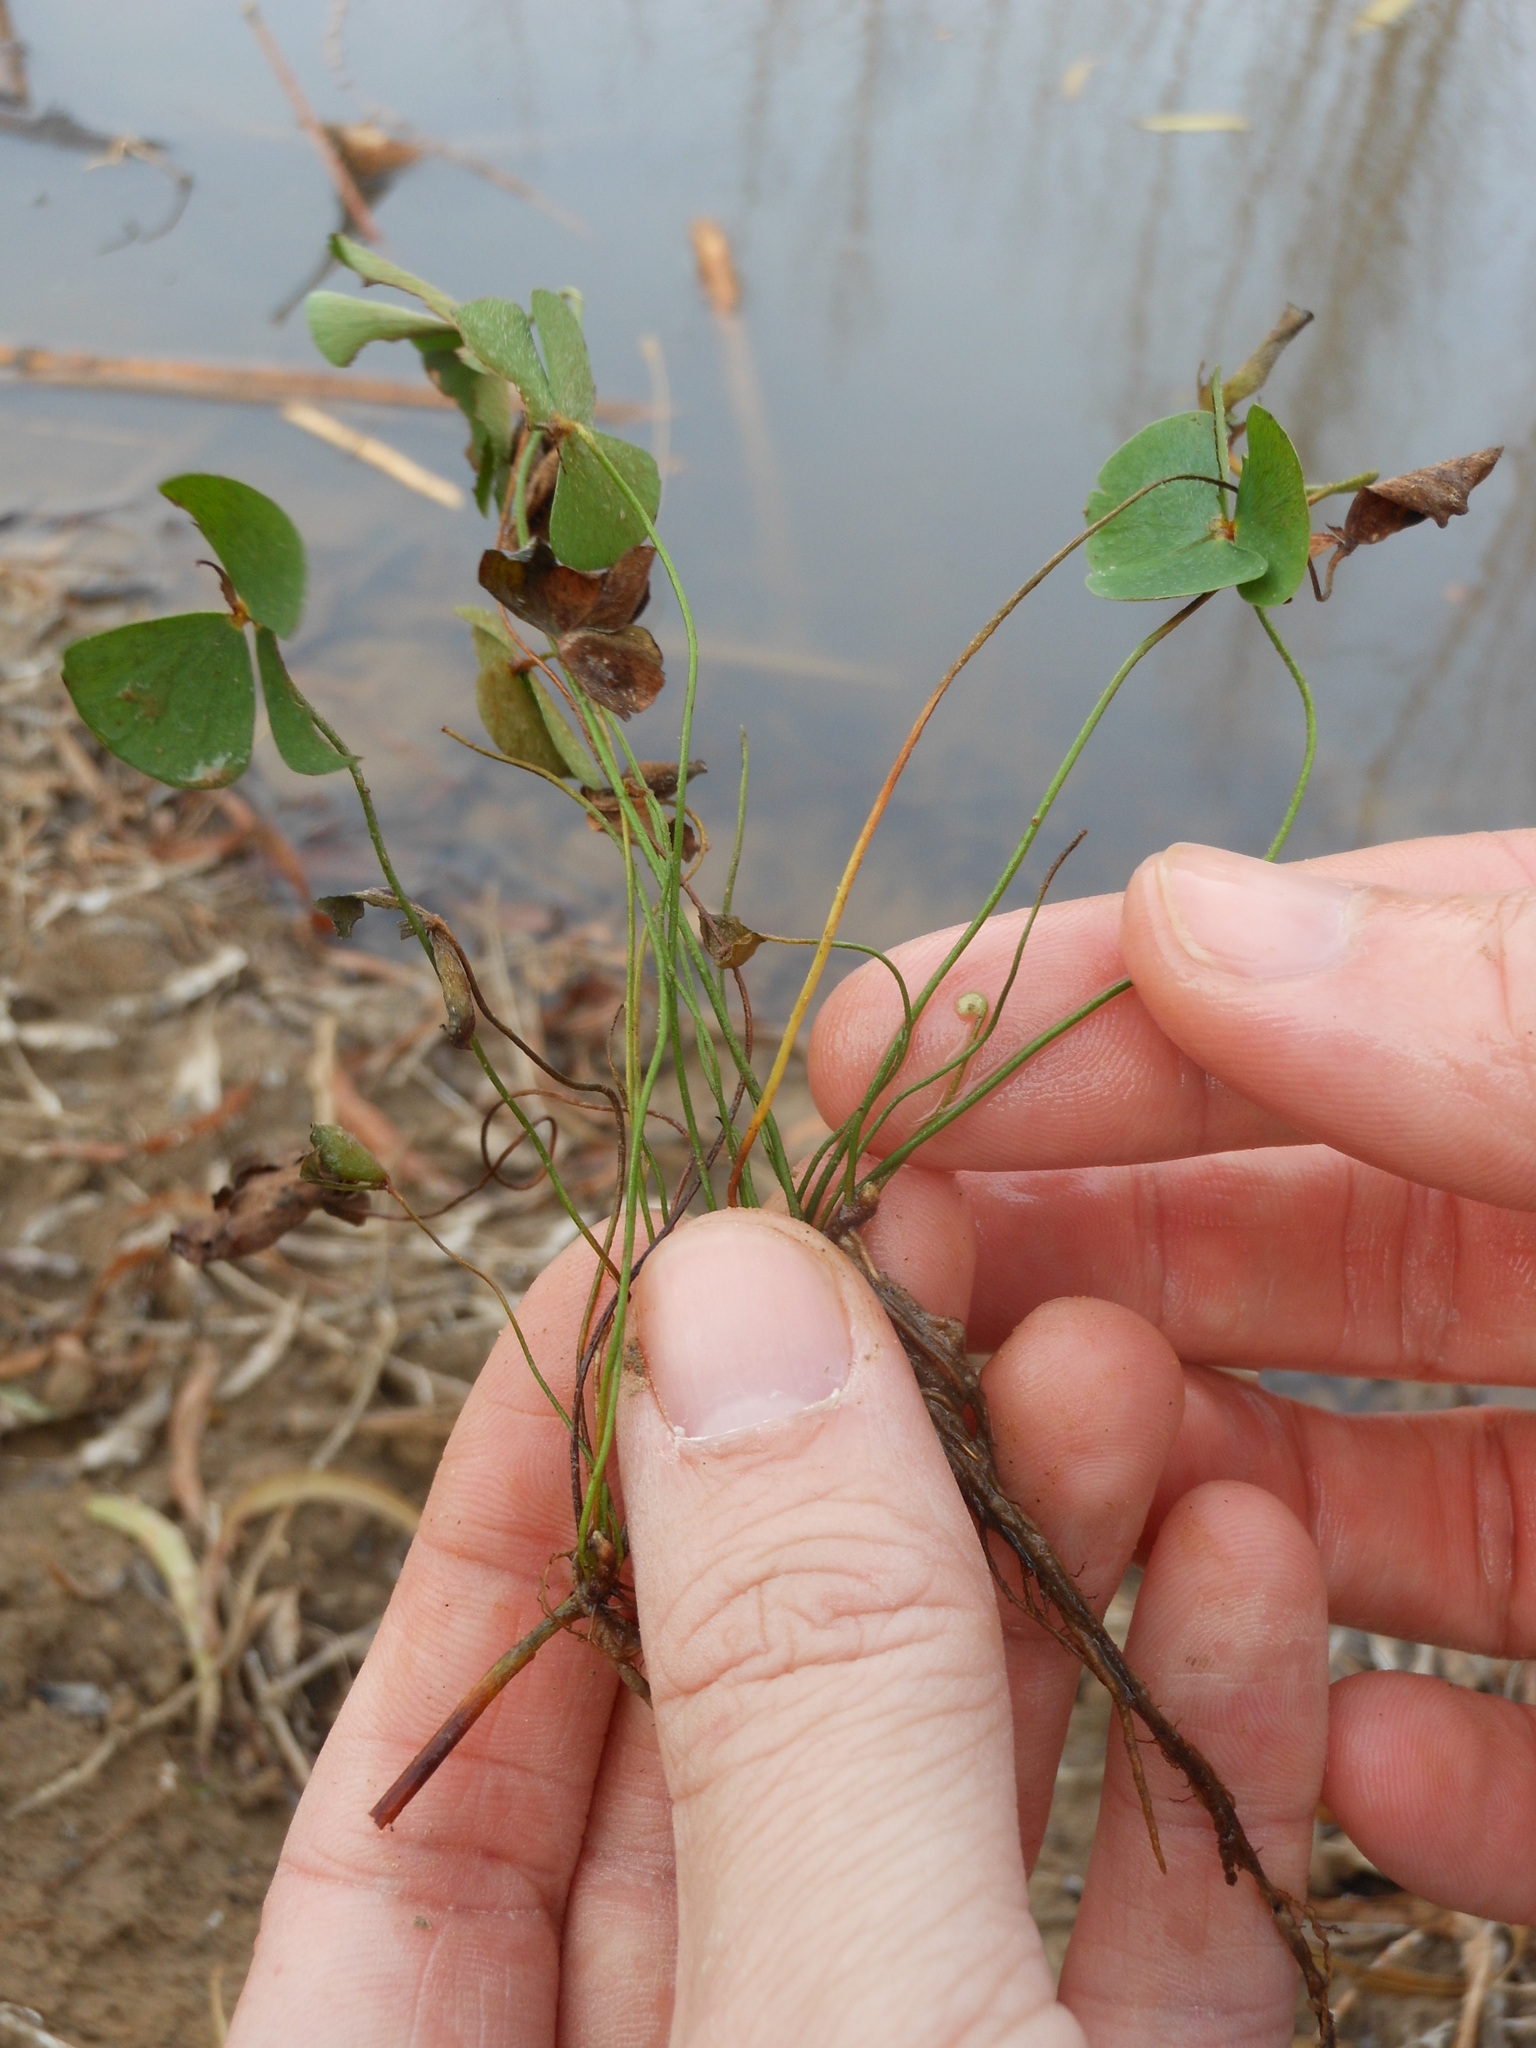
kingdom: Plantae
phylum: Tracheophyta
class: Polypodiopsida
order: Salviniales
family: Marsileaceae
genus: Marsilea
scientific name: Marsilea vestita
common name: Hooked-pepperwort
